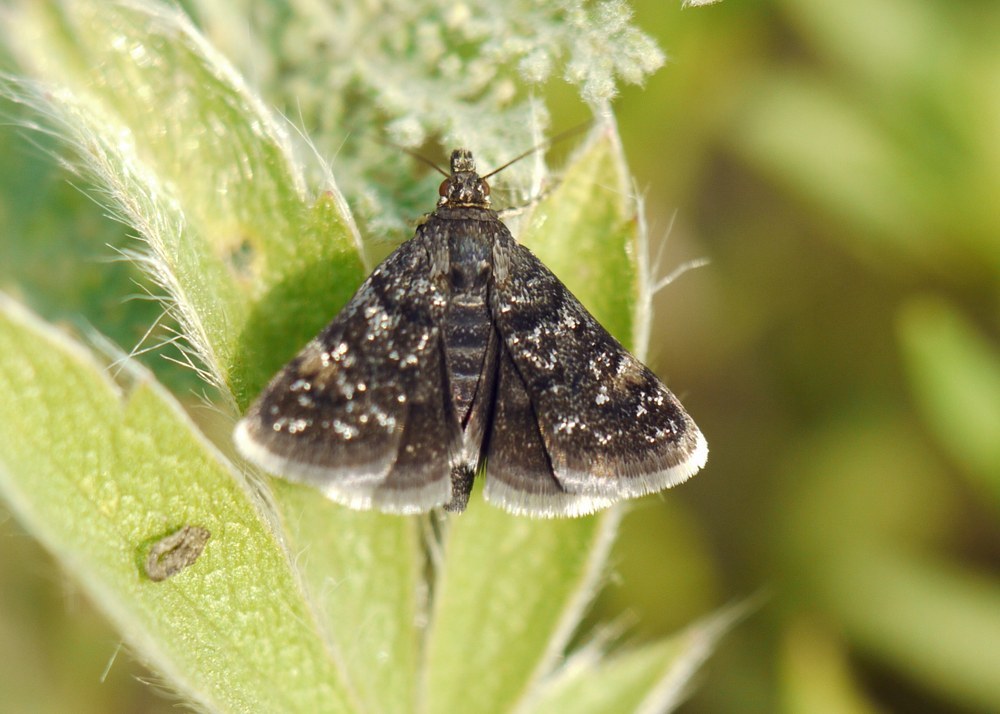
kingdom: Animalia
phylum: Arthropoda
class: Insecta
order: Lepidoptera
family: Crambidae
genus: Heliothela
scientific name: Heliothela wulfeniana
